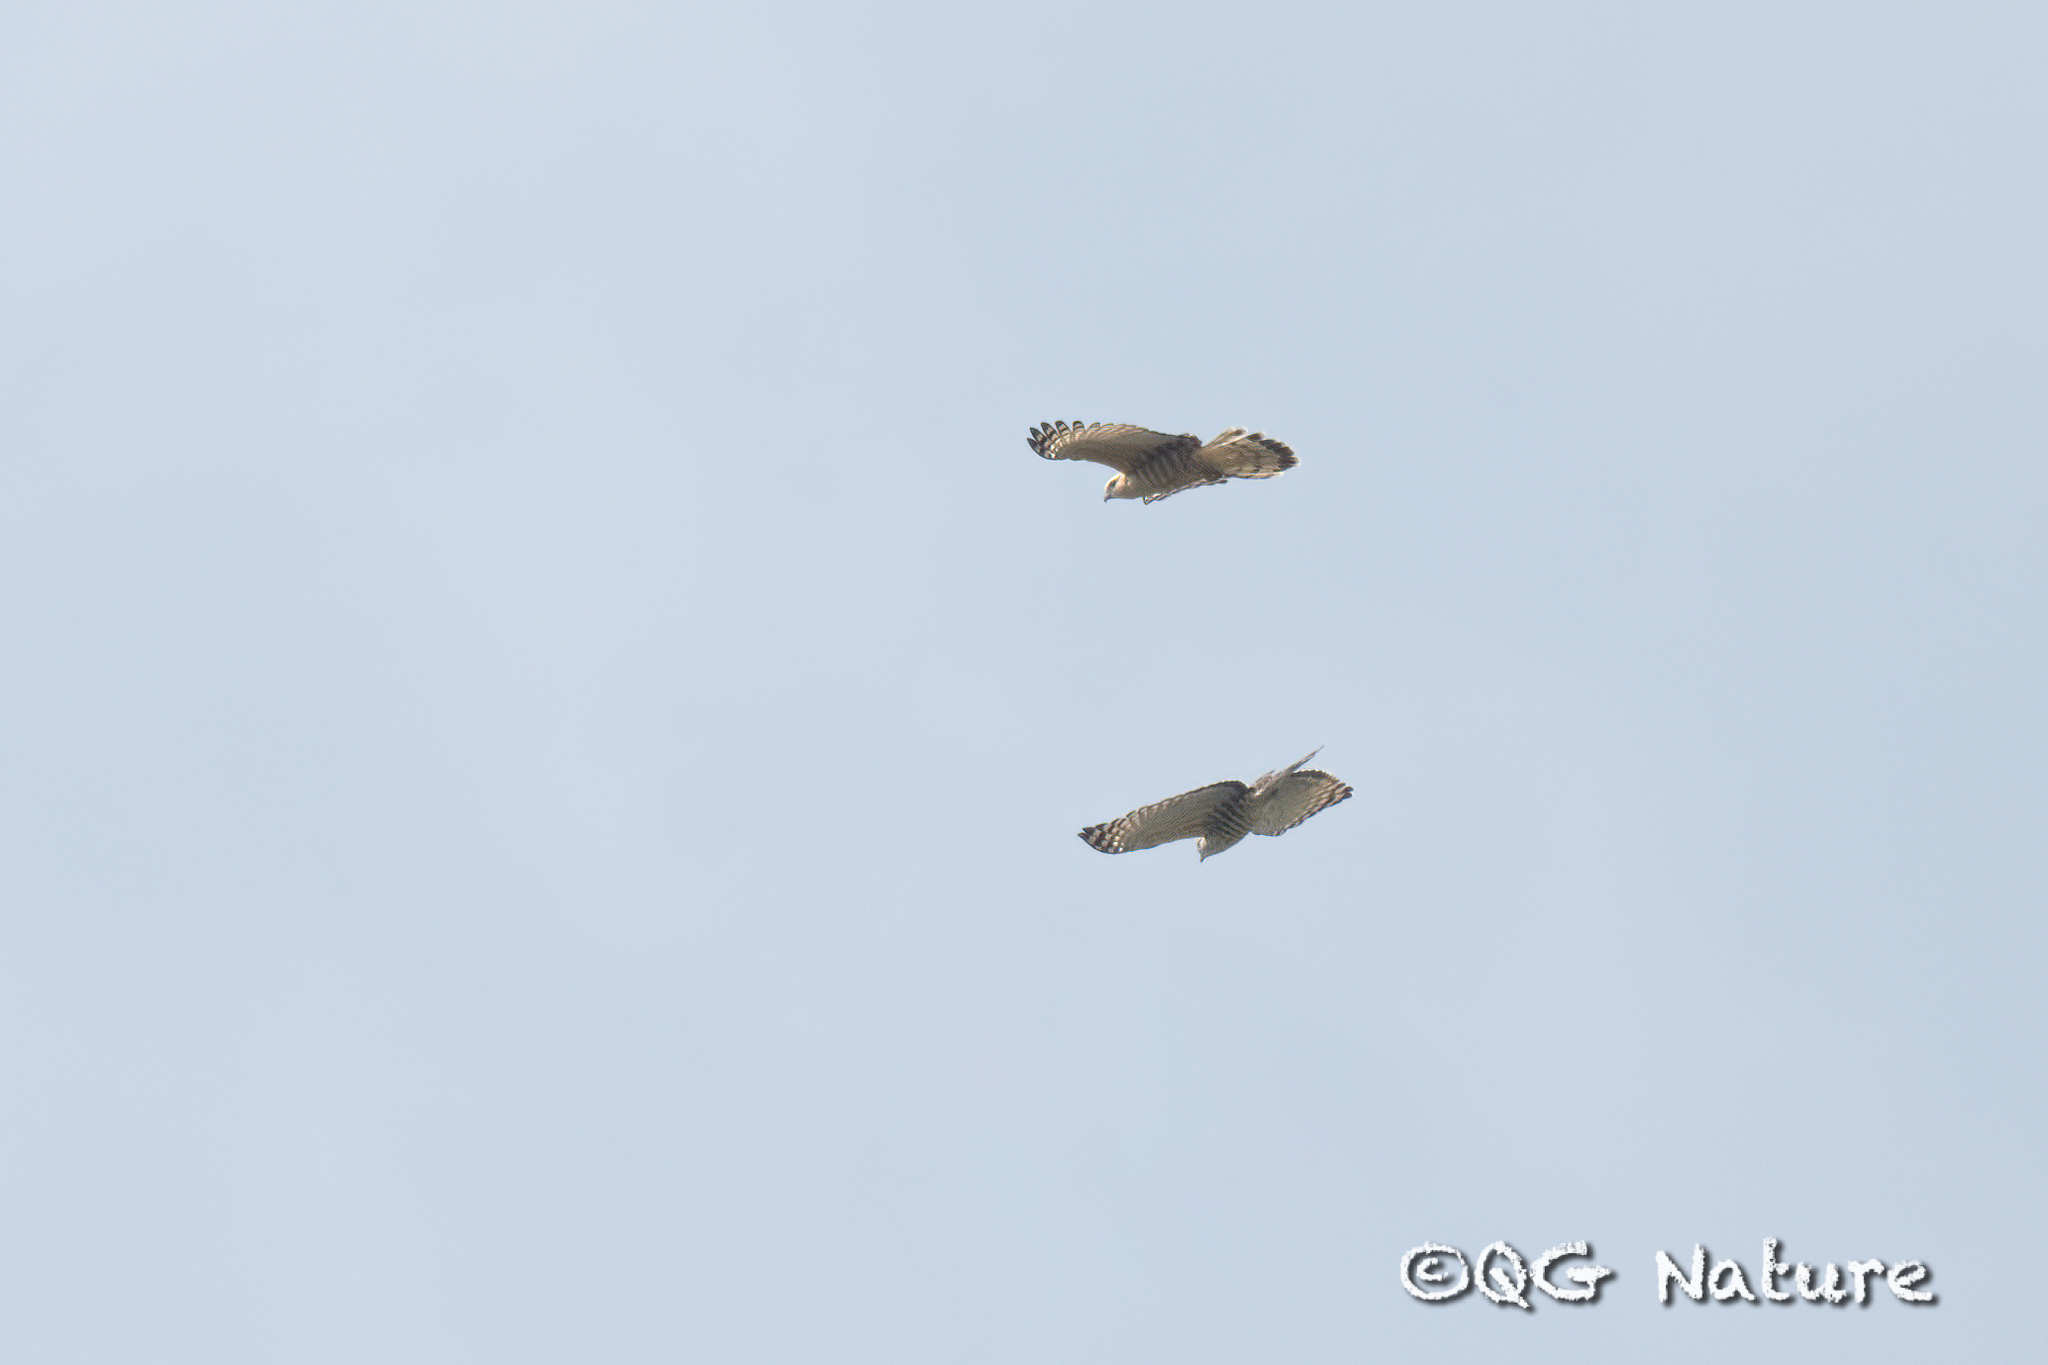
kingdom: Animalia
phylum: Chordata
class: Aves
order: Accipitriformes
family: Accipitridae
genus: Aviceda
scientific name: Aviceda jerdoni
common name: Jerdon's baza
